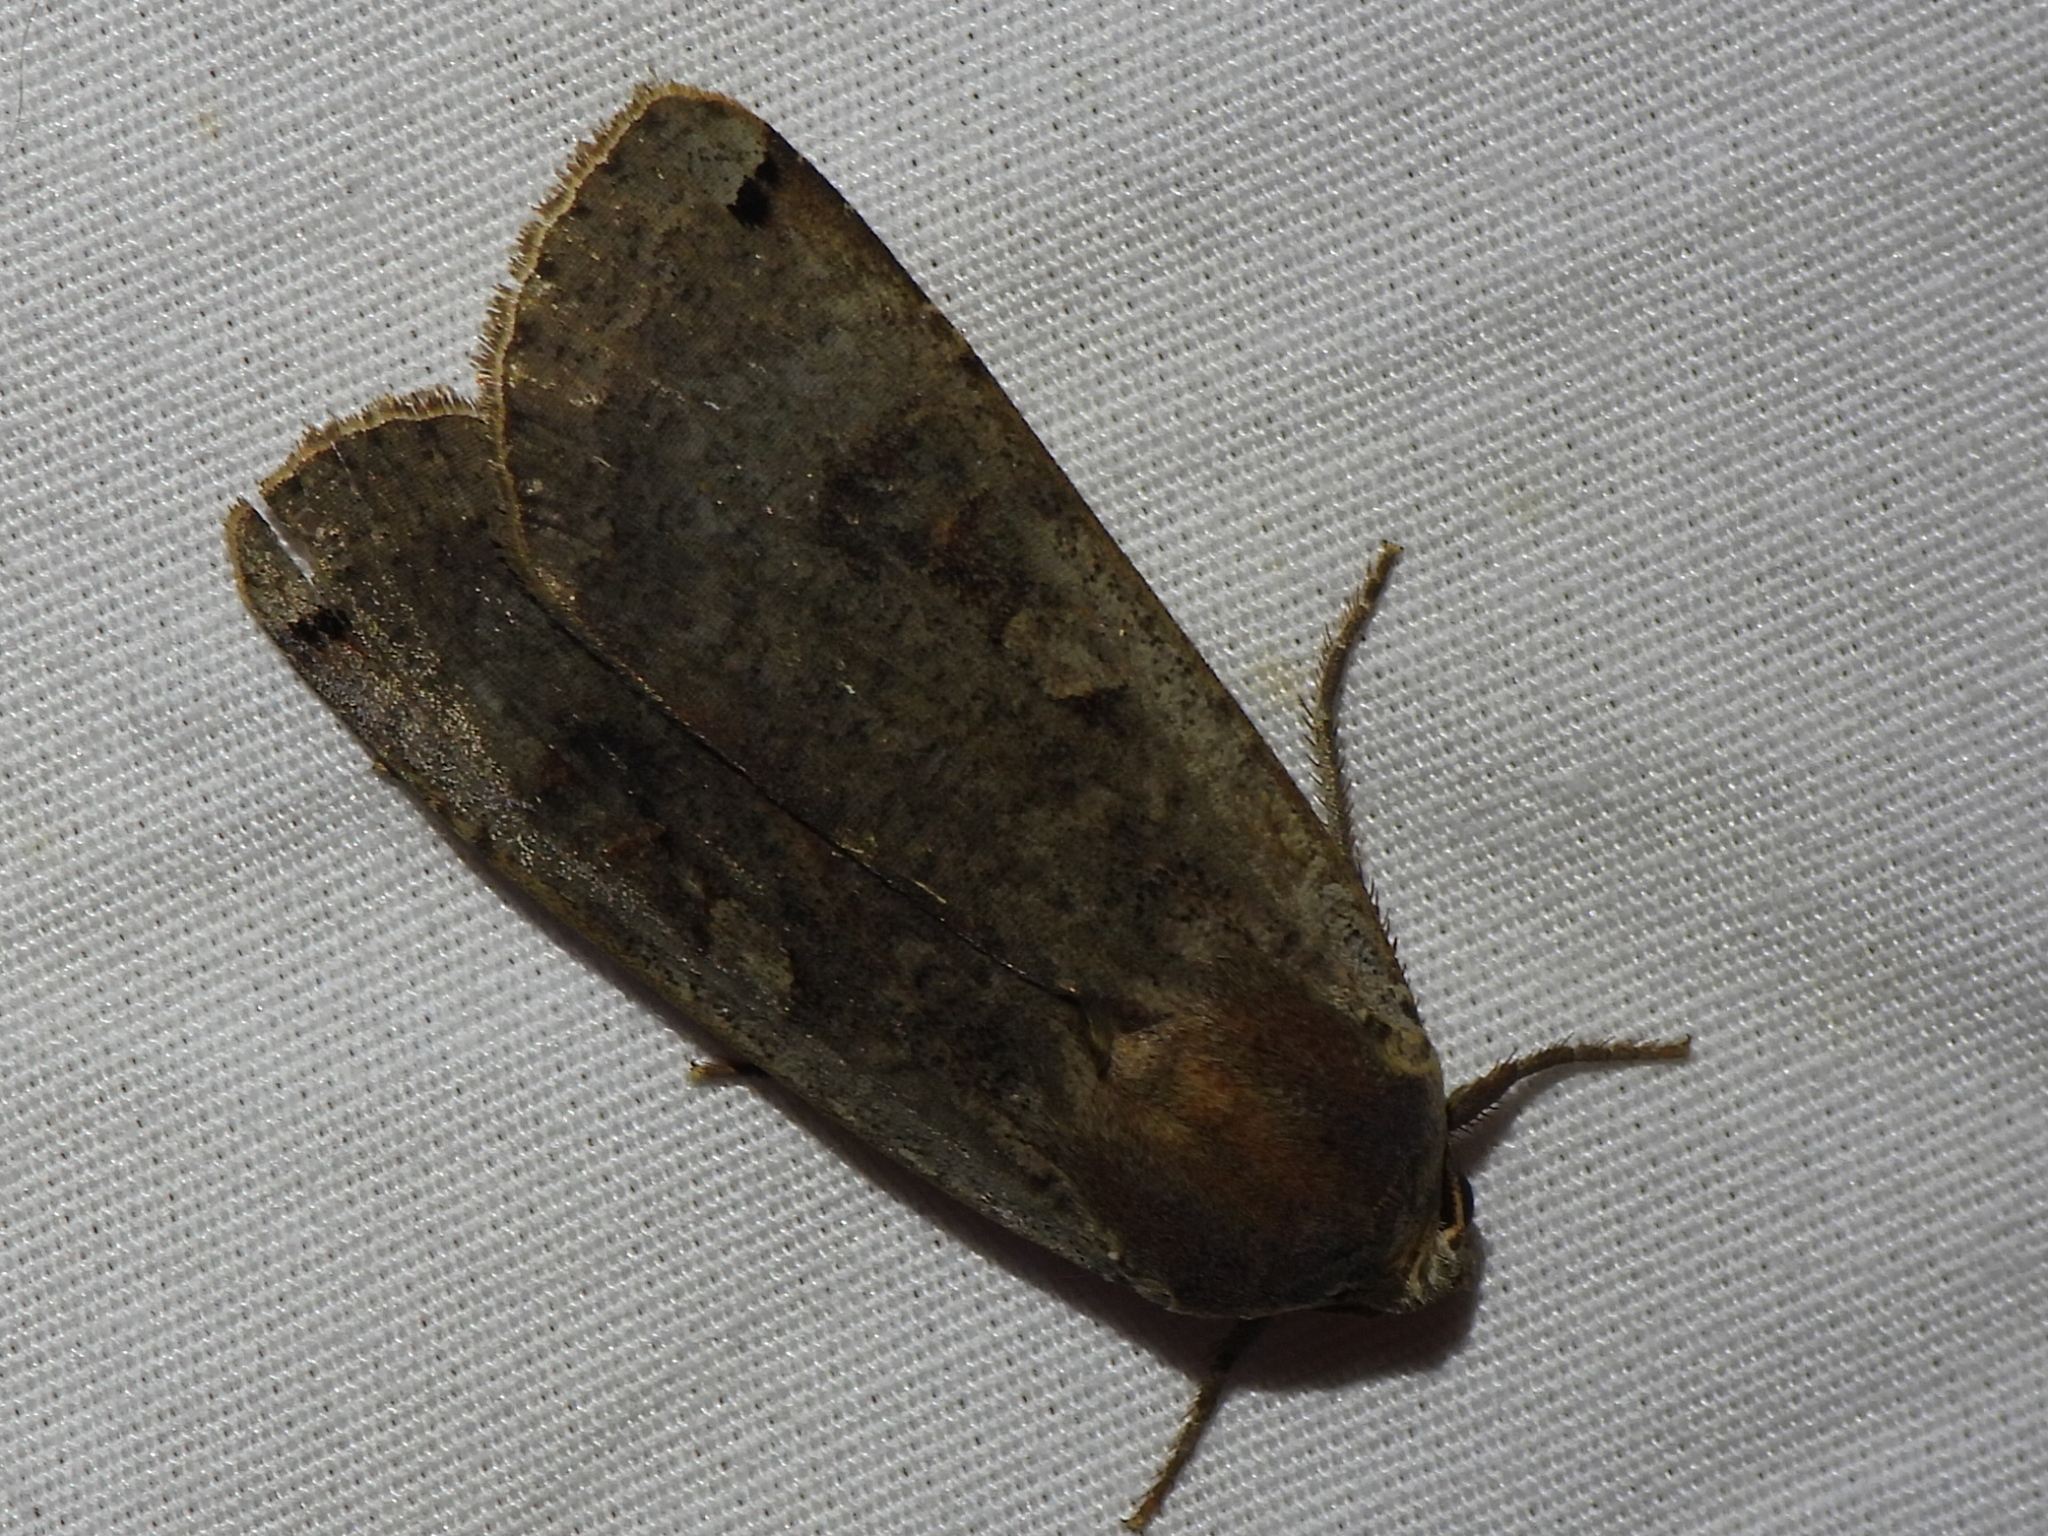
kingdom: Animalia
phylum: Arthropoda
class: Insecta
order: Lepidoptera
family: Noctuidae
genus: Noctua
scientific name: Noctua pronuba
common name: Large yellow underwing
